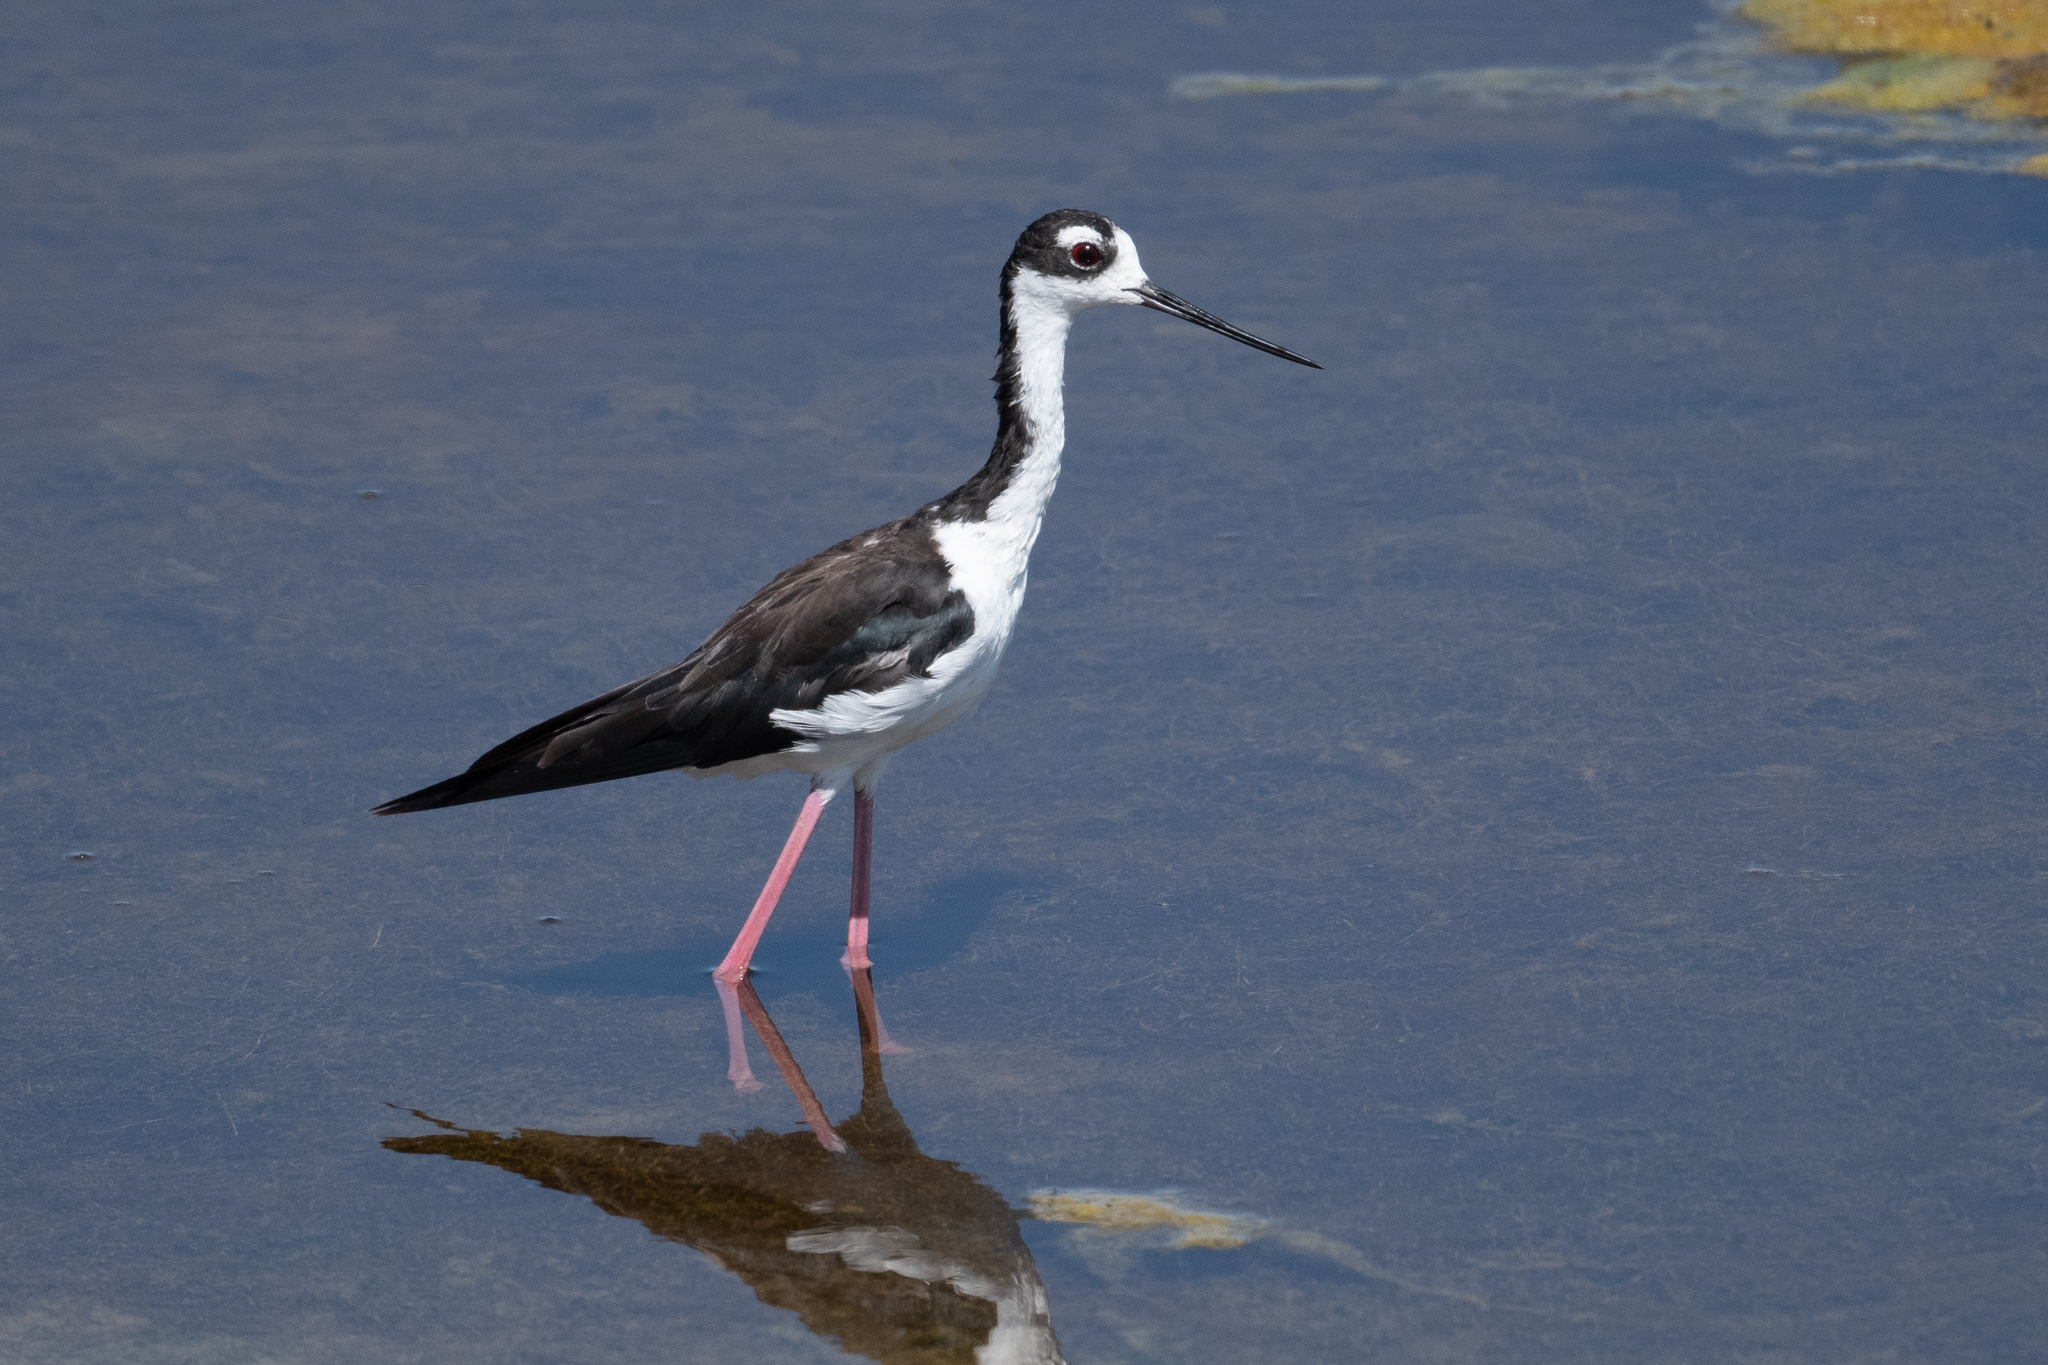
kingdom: Animalia
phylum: Chordata
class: Aves
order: Charadriiformes
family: Recurvirostridae
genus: Himantopus
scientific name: Himantopus mexicanus
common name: Black-necked stilt
